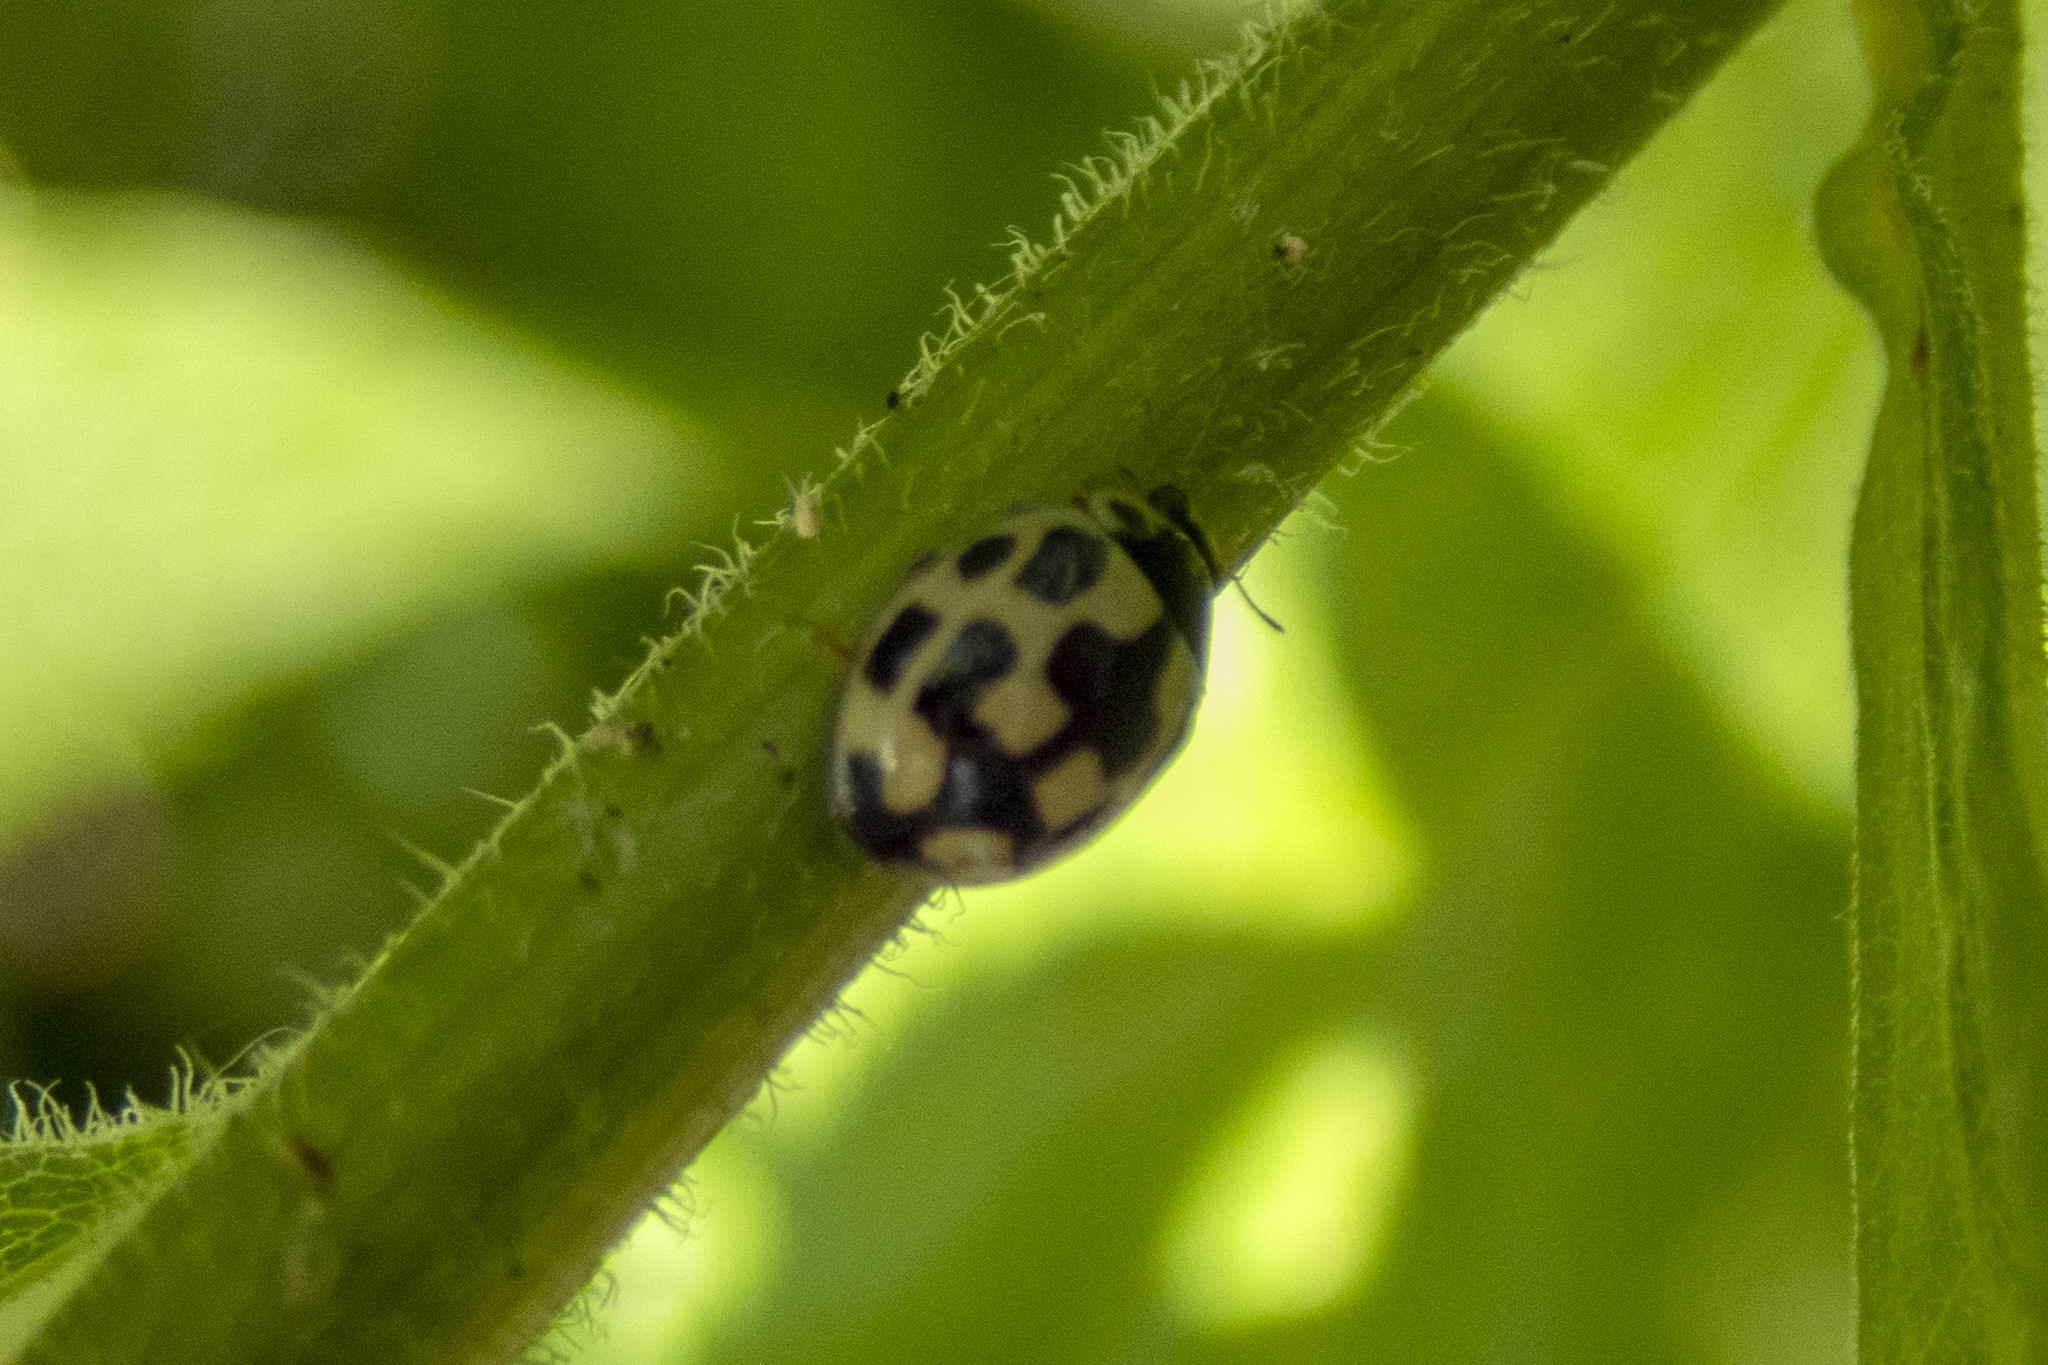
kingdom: Animalia
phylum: Arthropoda
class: Insecta
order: Coleoptera
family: Coccinellidae
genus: Propylaea
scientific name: Propylaea quatuordecimpunctata
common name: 14-spotted ladybird beetle
